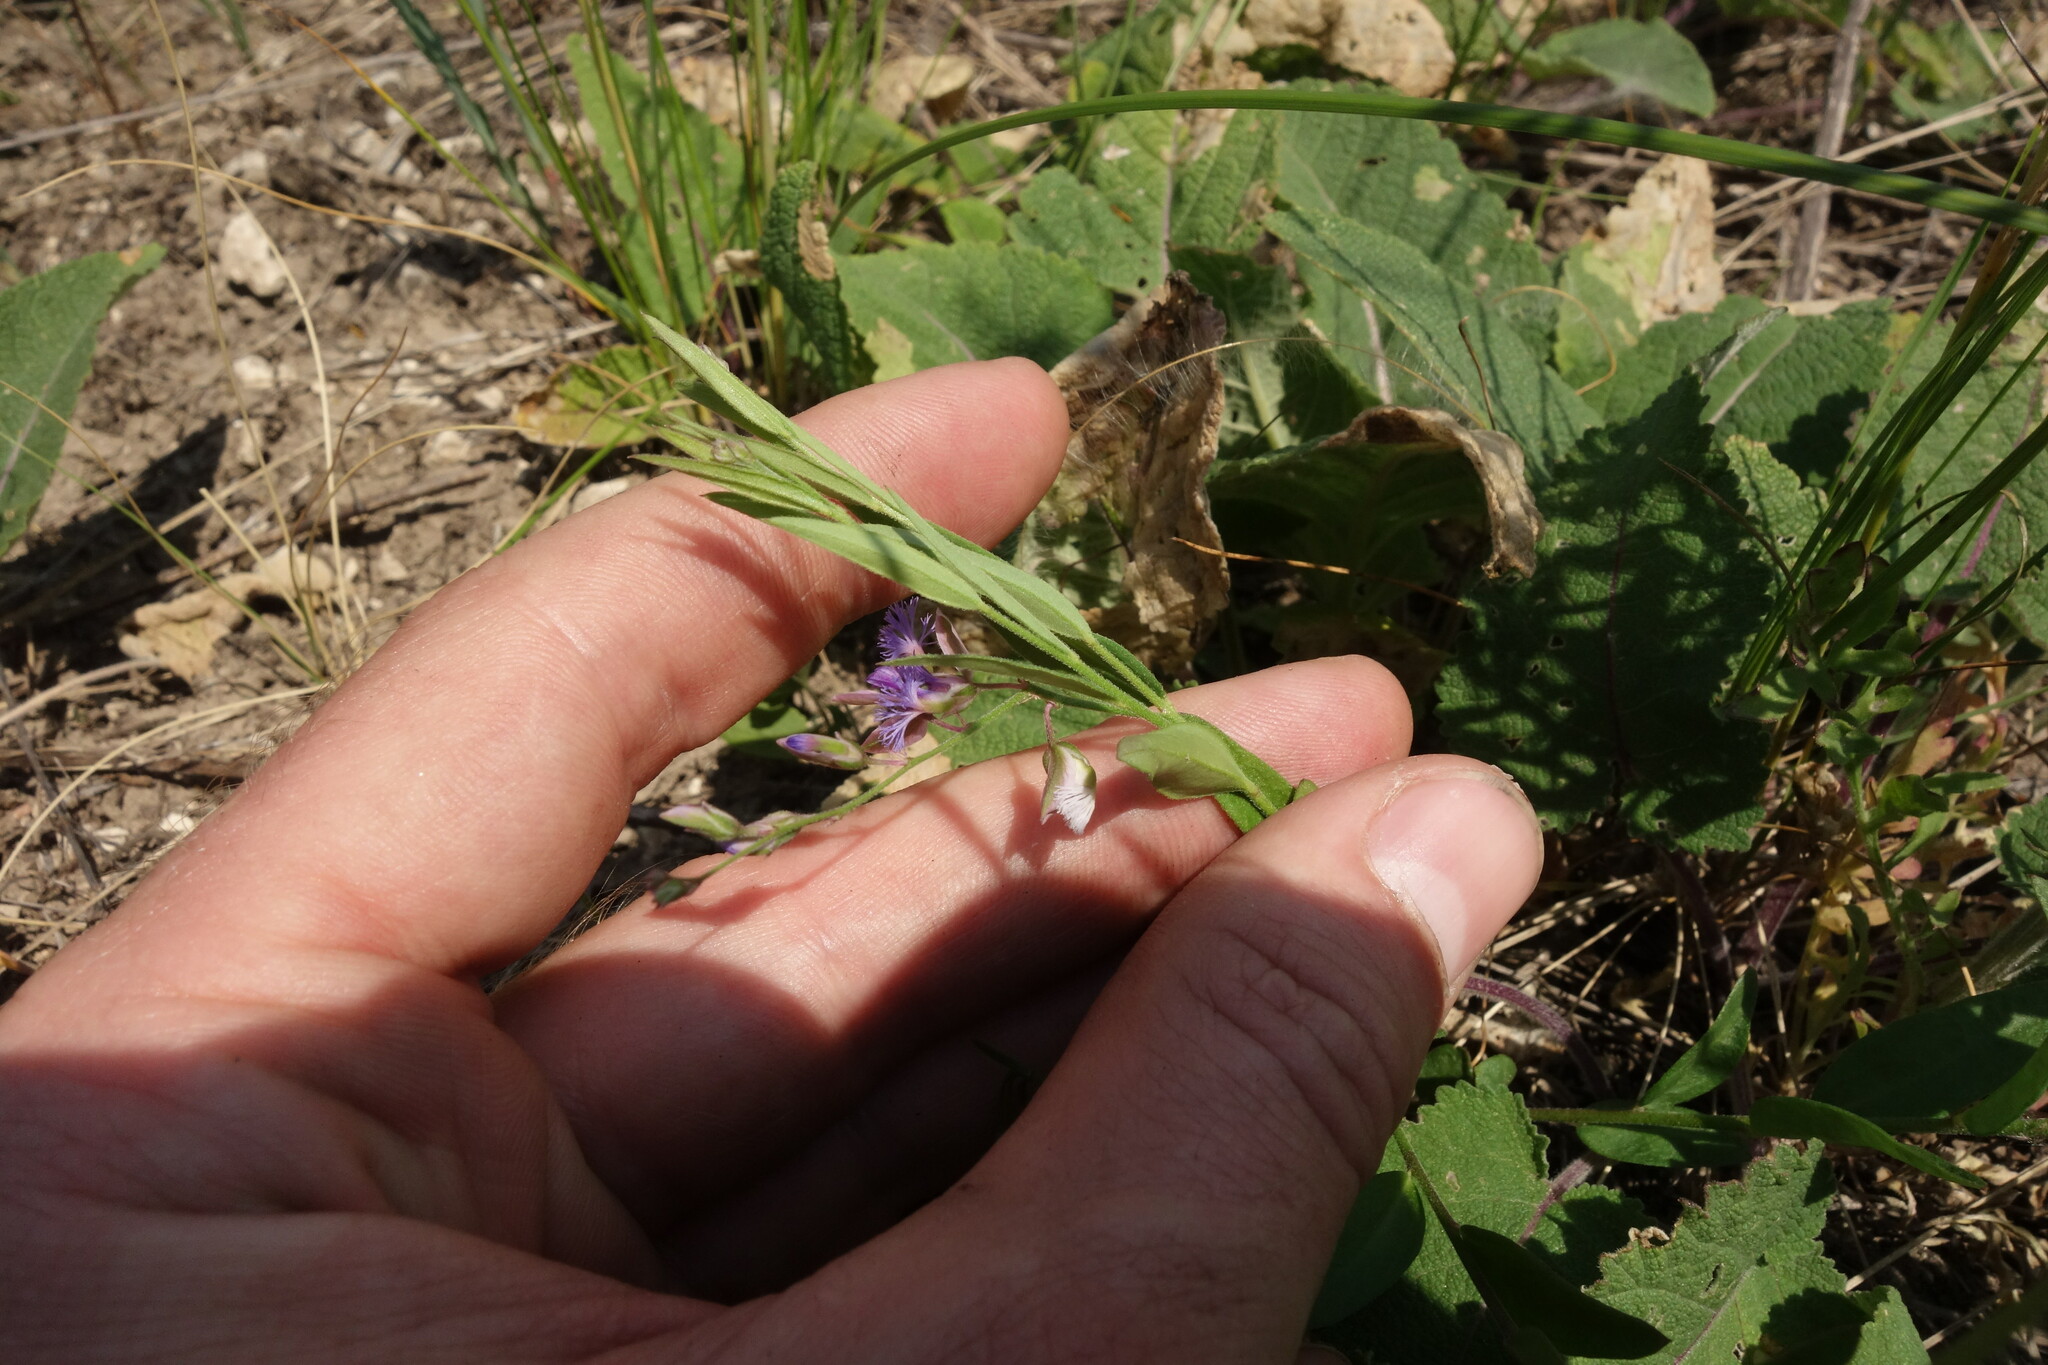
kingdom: Plantae
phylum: Tracheophyta
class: Magnoliopsida
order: Fabales
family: Polygalaceae
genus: Polygala
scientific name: Polygala sibirica
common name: Siberian polygala
